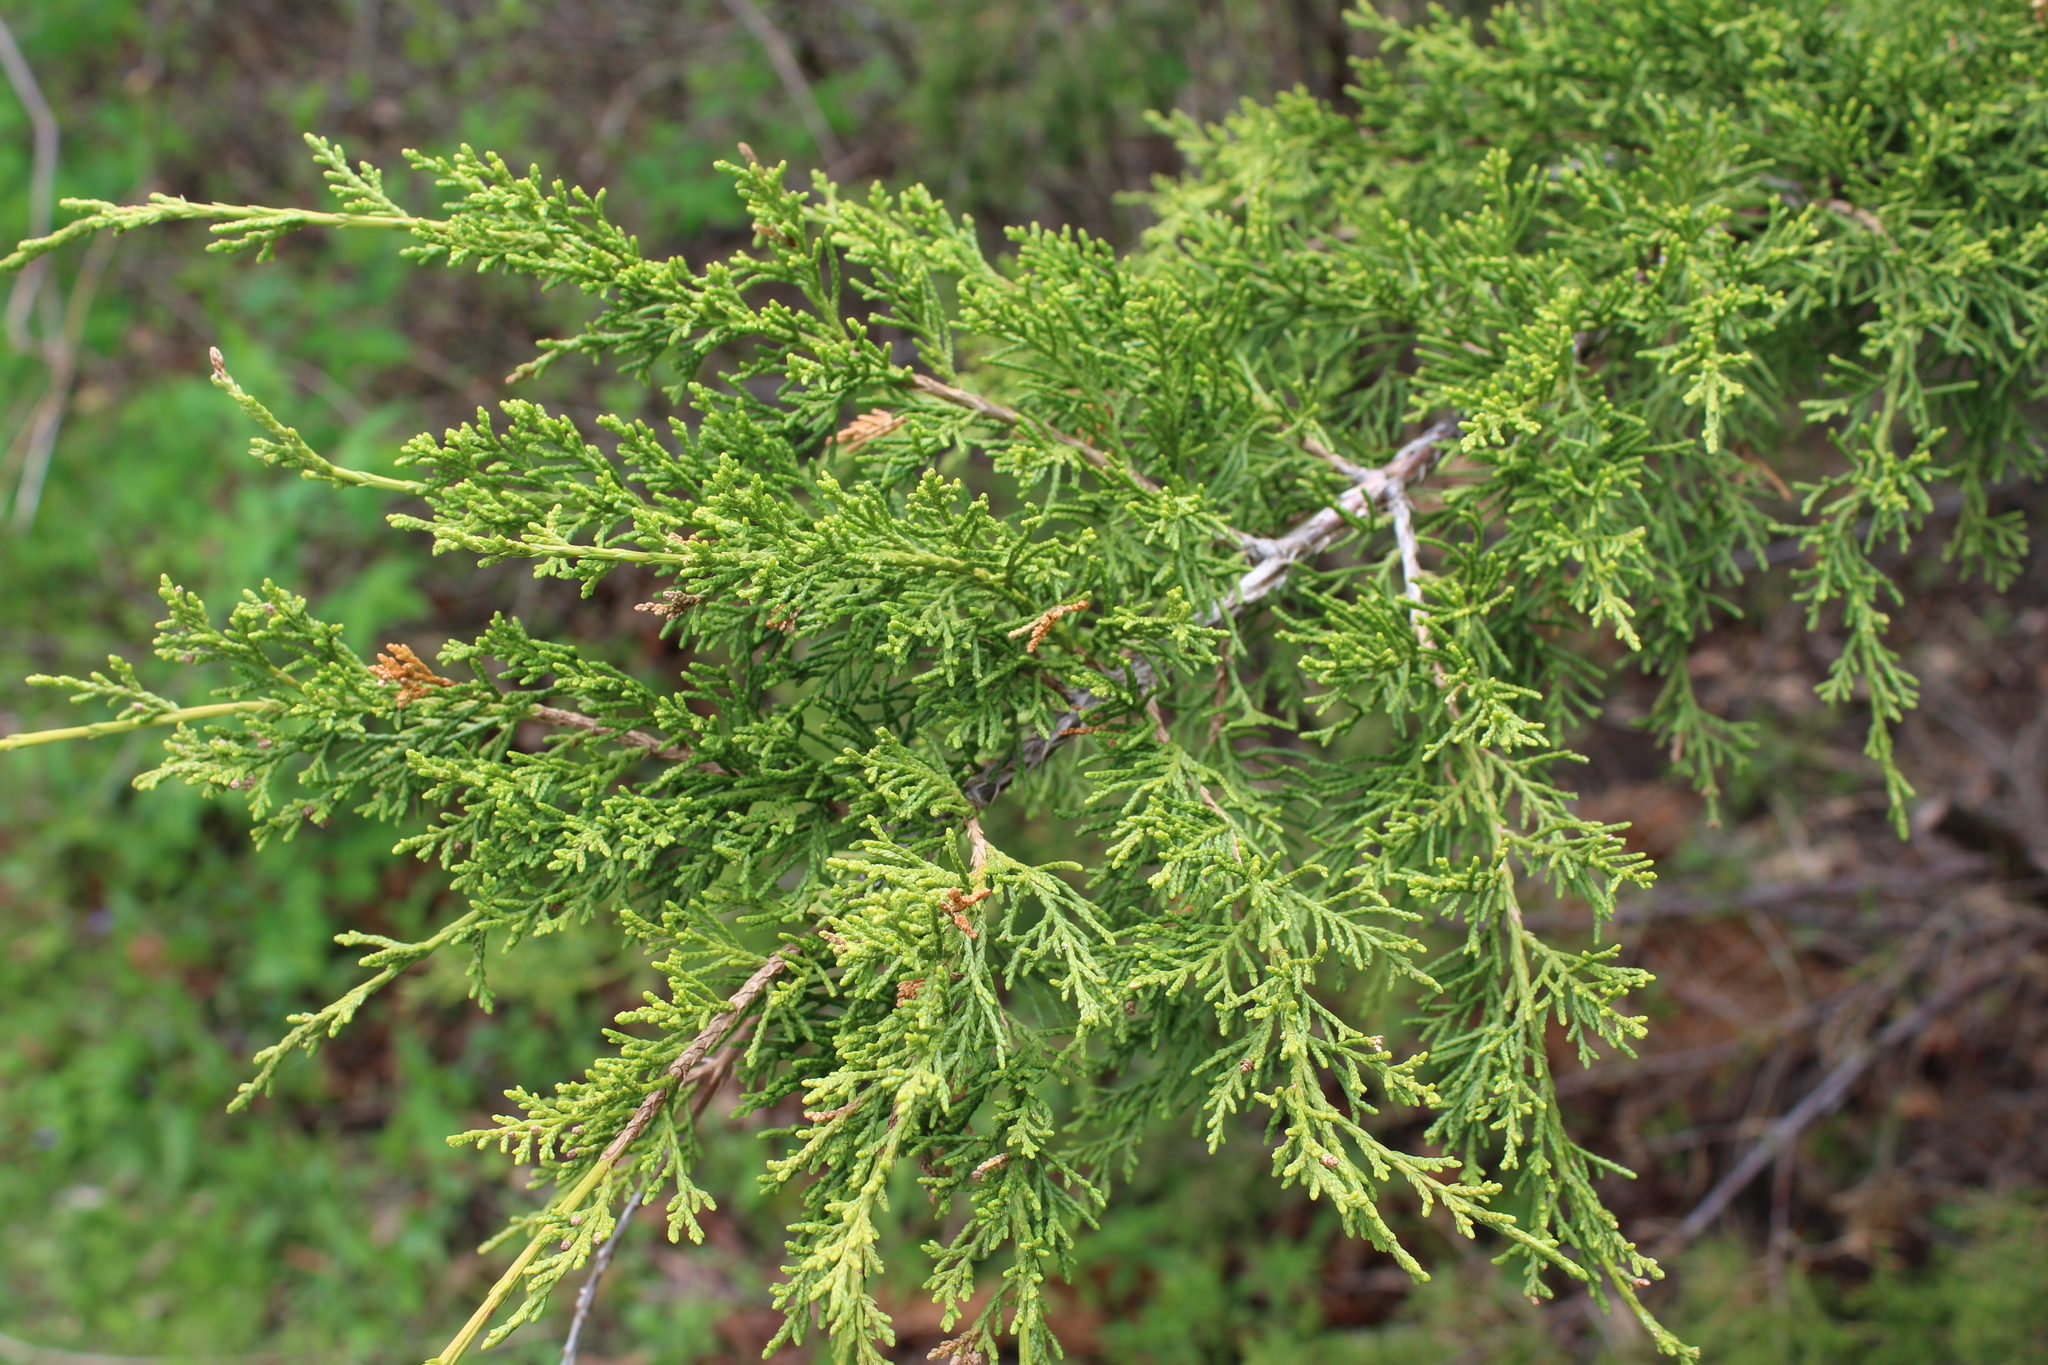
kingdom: Plantae
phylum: Tracheophyta
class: Pinopsida
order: Pinales
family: Cupressaceae
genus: Juniperus
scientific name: Juniperus virginiana
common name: Red juniper
